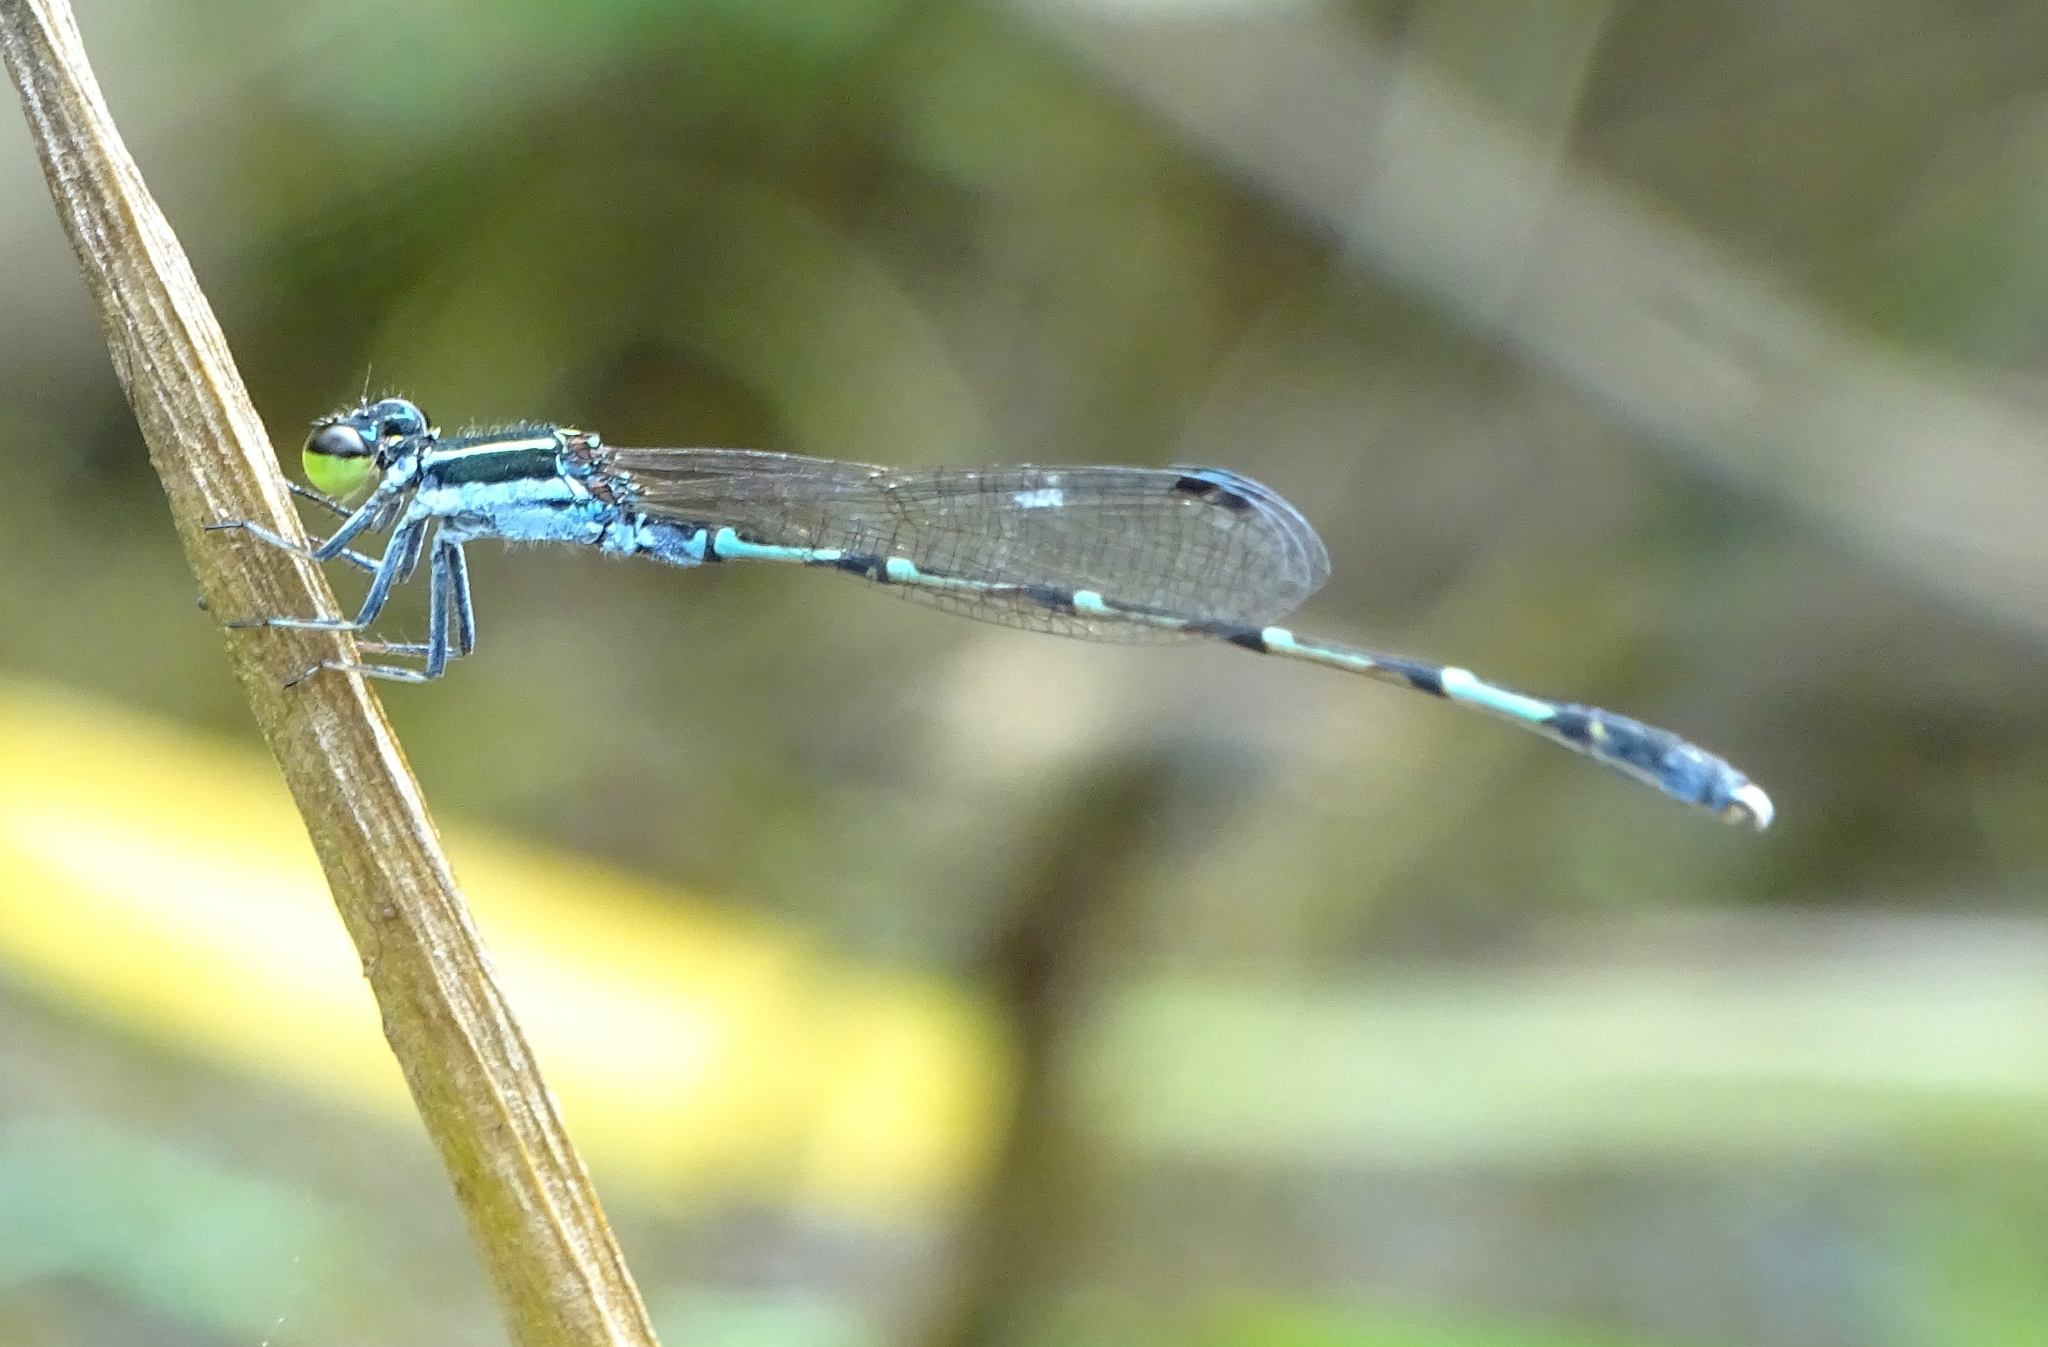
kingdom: Animalia
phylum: Arthropoda
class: Insecta
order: Odonata
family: Coenagrionidae
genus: Agriocnemis
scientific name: Agriocnemis splendidissima
